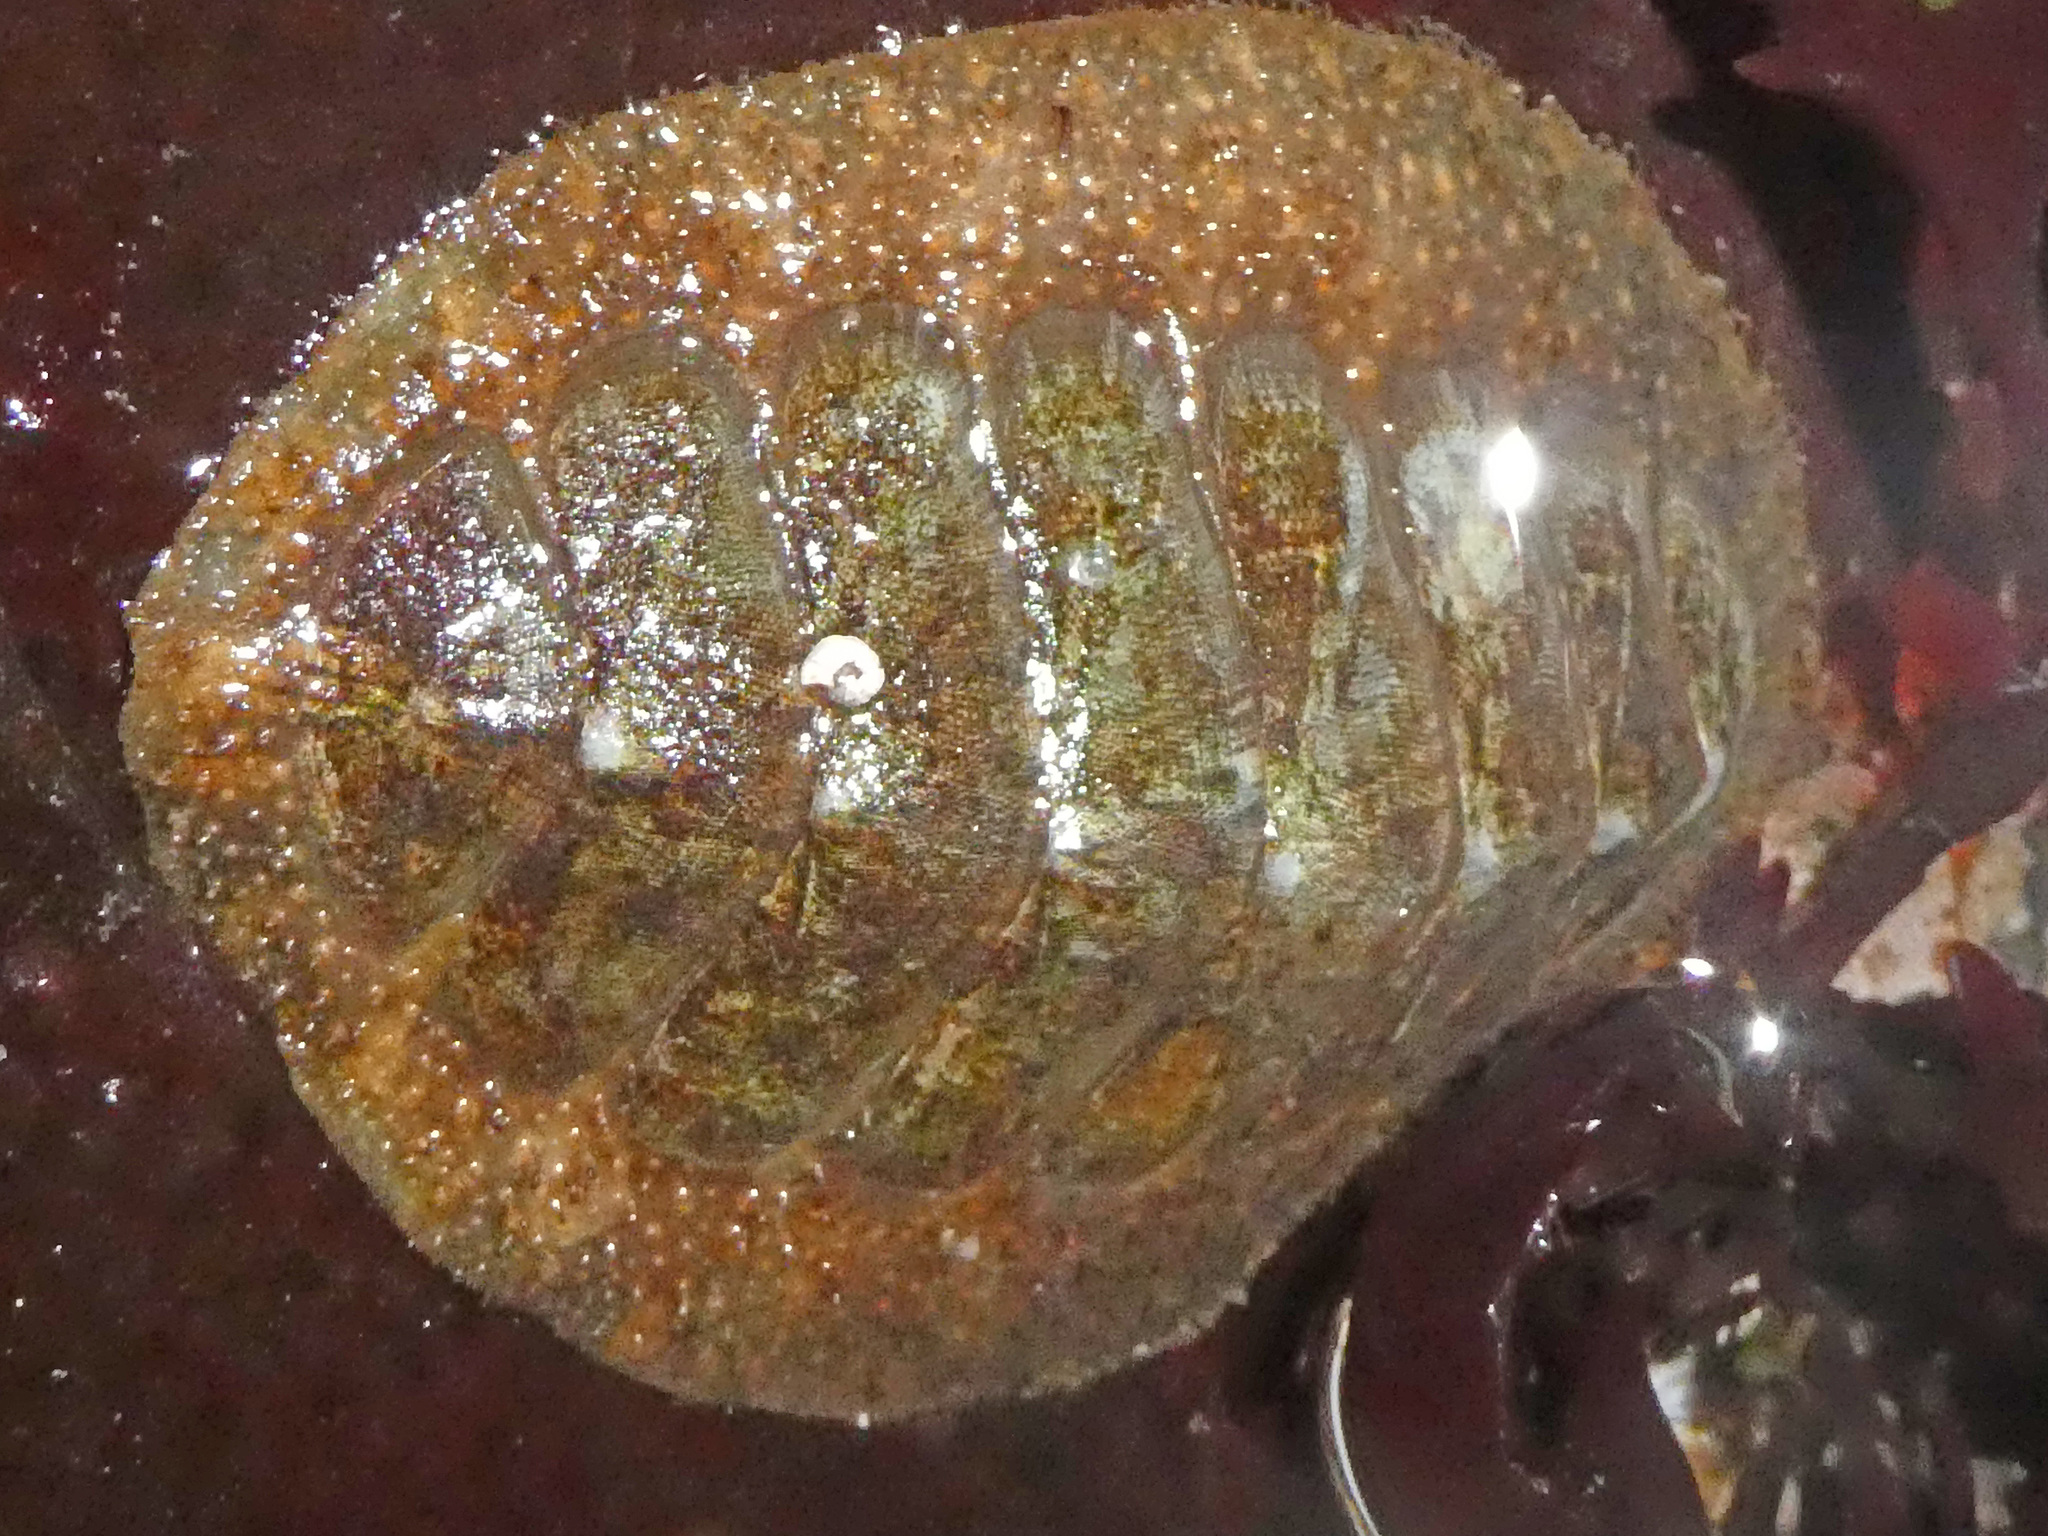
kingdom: Animalia
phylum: Mollusca
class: Polyplacophora
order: Chitonida
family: Mopaliidae
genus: Mopalia
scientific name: Mopalia lignosa
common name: Woody chiton
